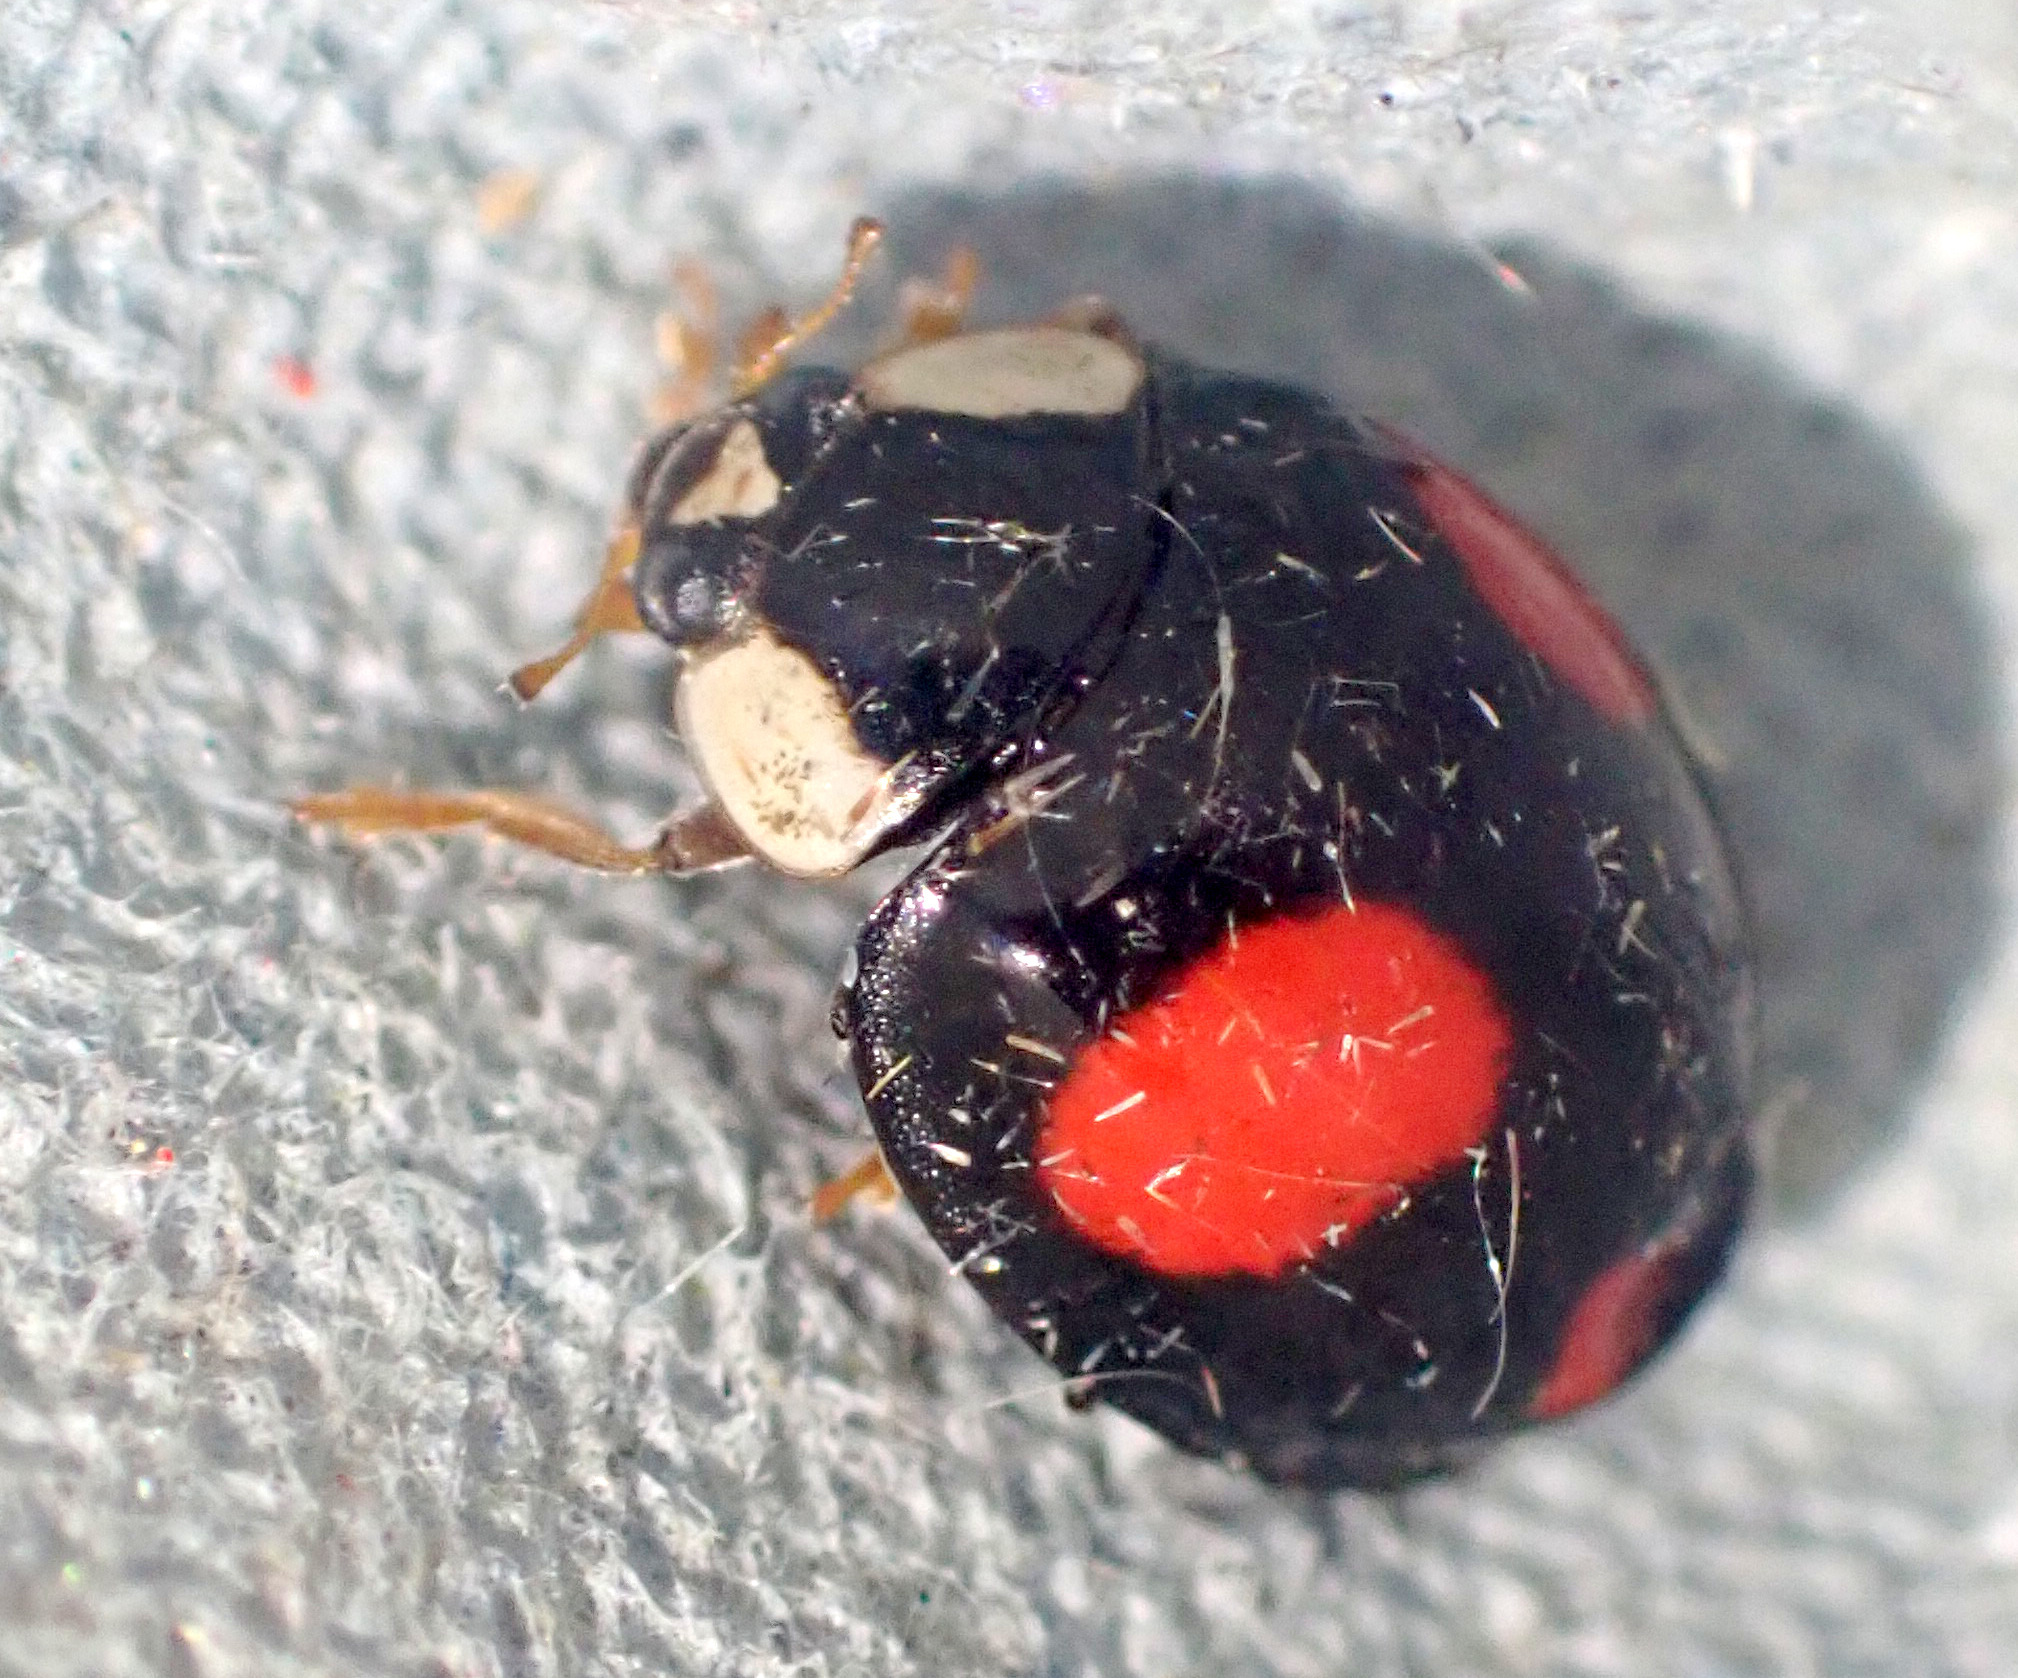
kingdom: Animalia
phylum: Arthropoda
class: Insecta
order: Coleoptera
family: Coccinellidae
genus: Harmonia
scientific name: Harmonia axyridis
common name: Harlequin ladybird
